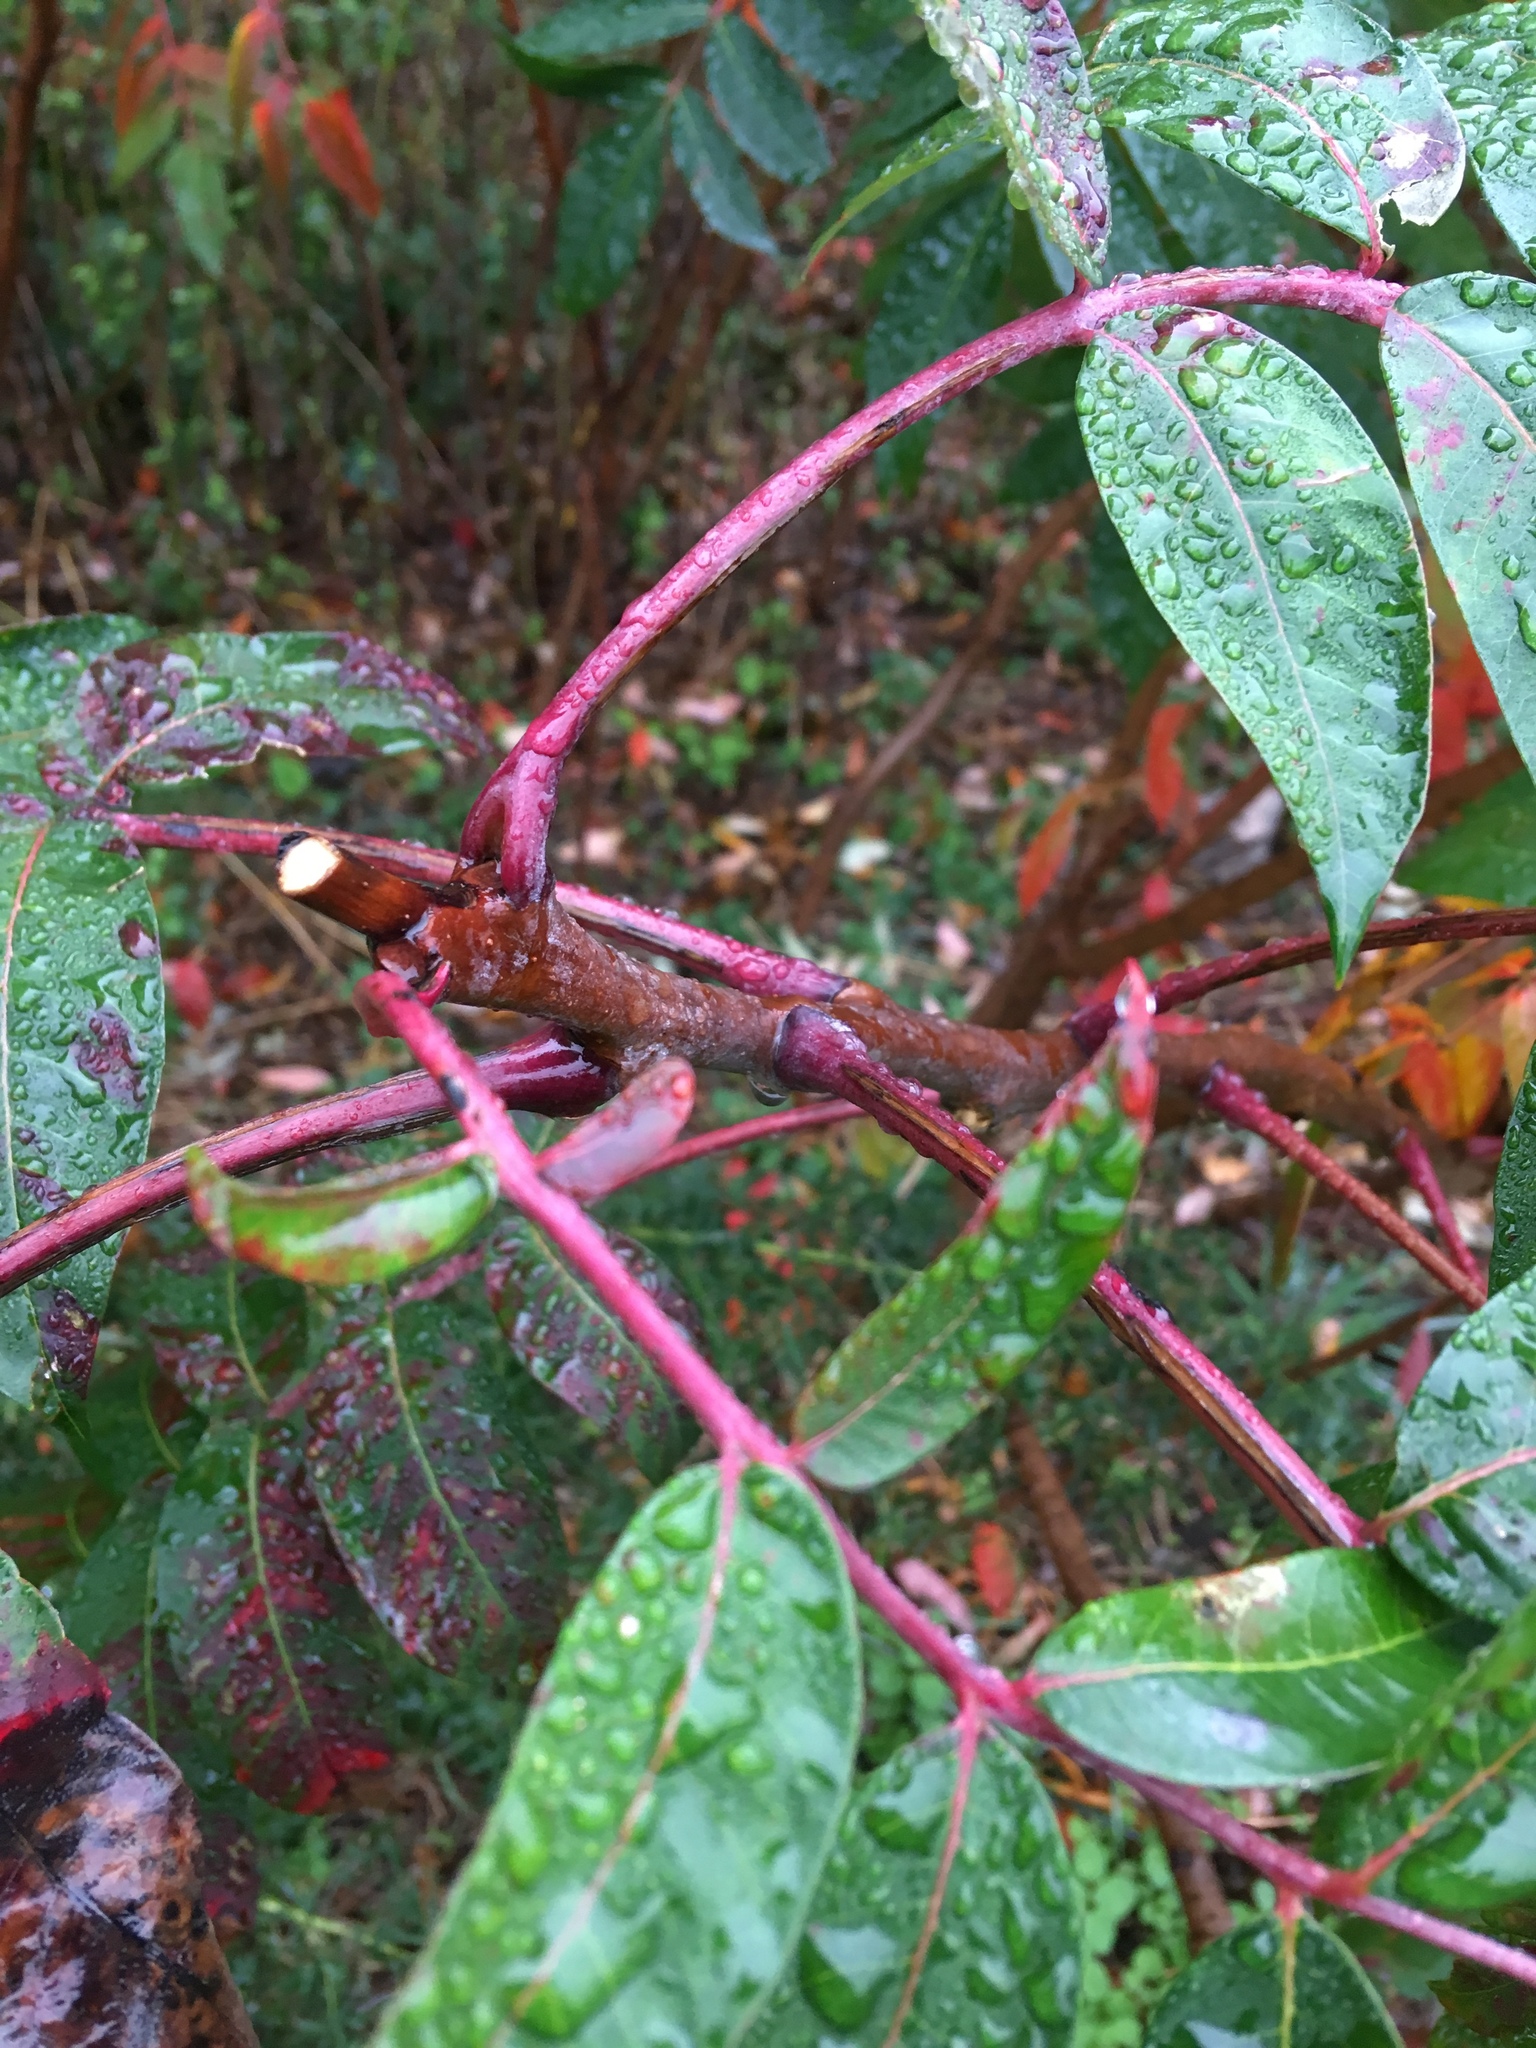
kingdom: Plantae
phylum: Tracheophyta
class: Magnoliopsida
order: Sapindales
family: Anacardiaceae
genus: Rhus
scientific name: Rhus glabra
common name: Scarlet sumac
